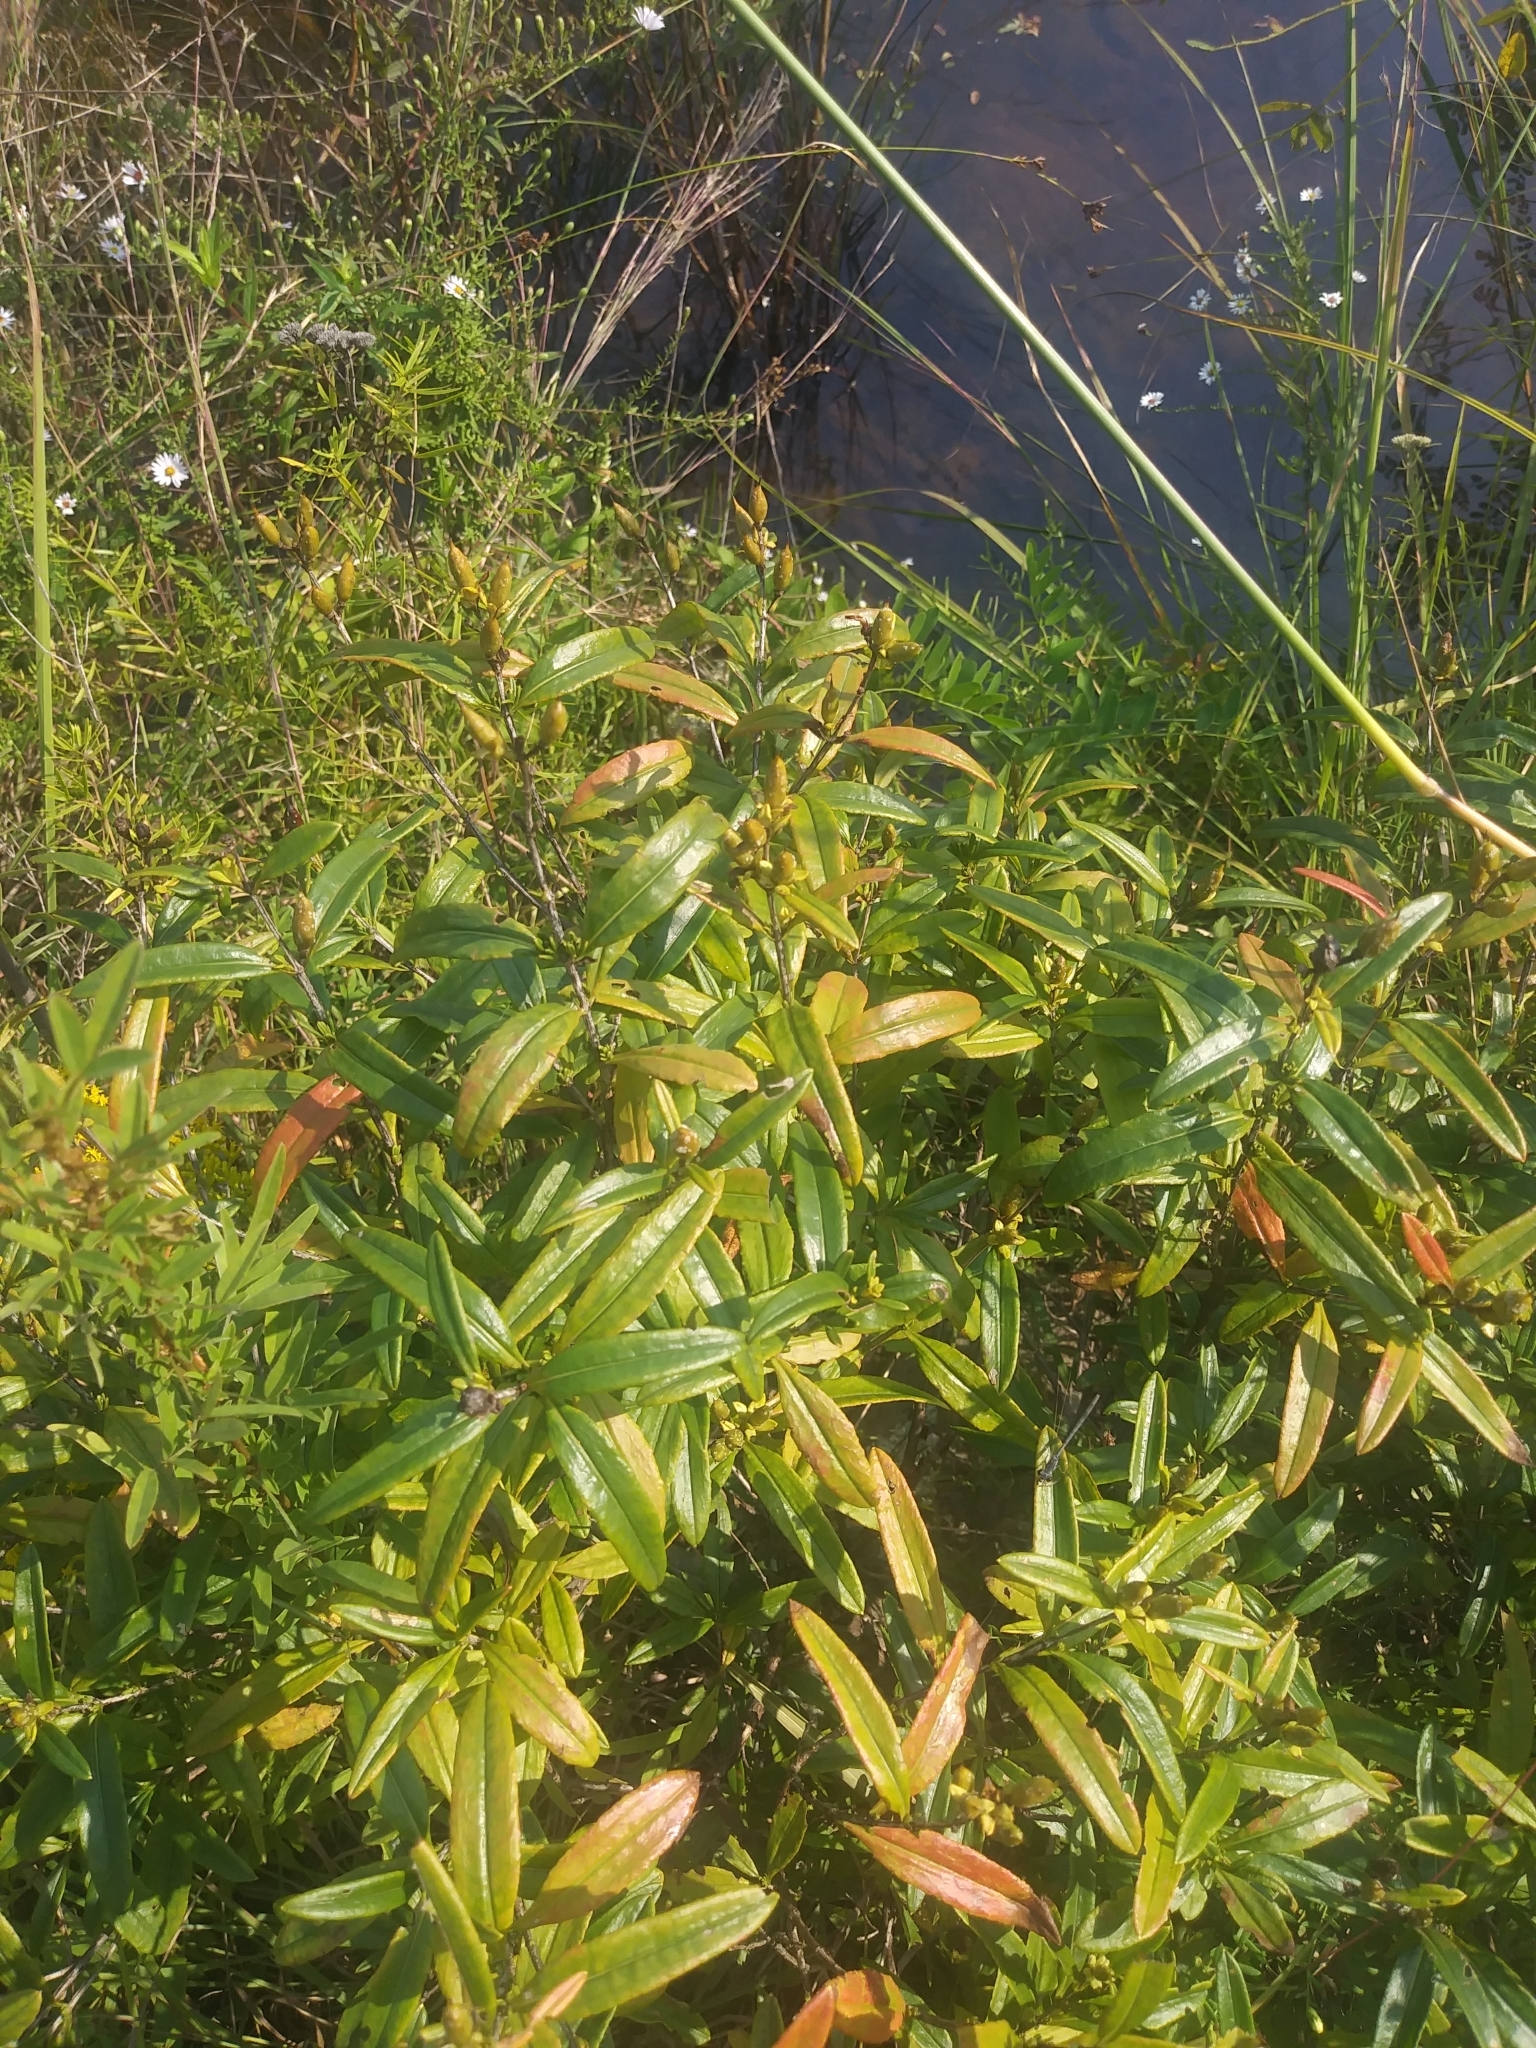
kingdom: Plantae
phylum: Tracheophyta
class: Magnoliopsida
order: Malpighiales
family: Hypericaceae
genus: Hypericum
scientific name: Hypericum prolificum
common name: Shrubby st. john's-wort
